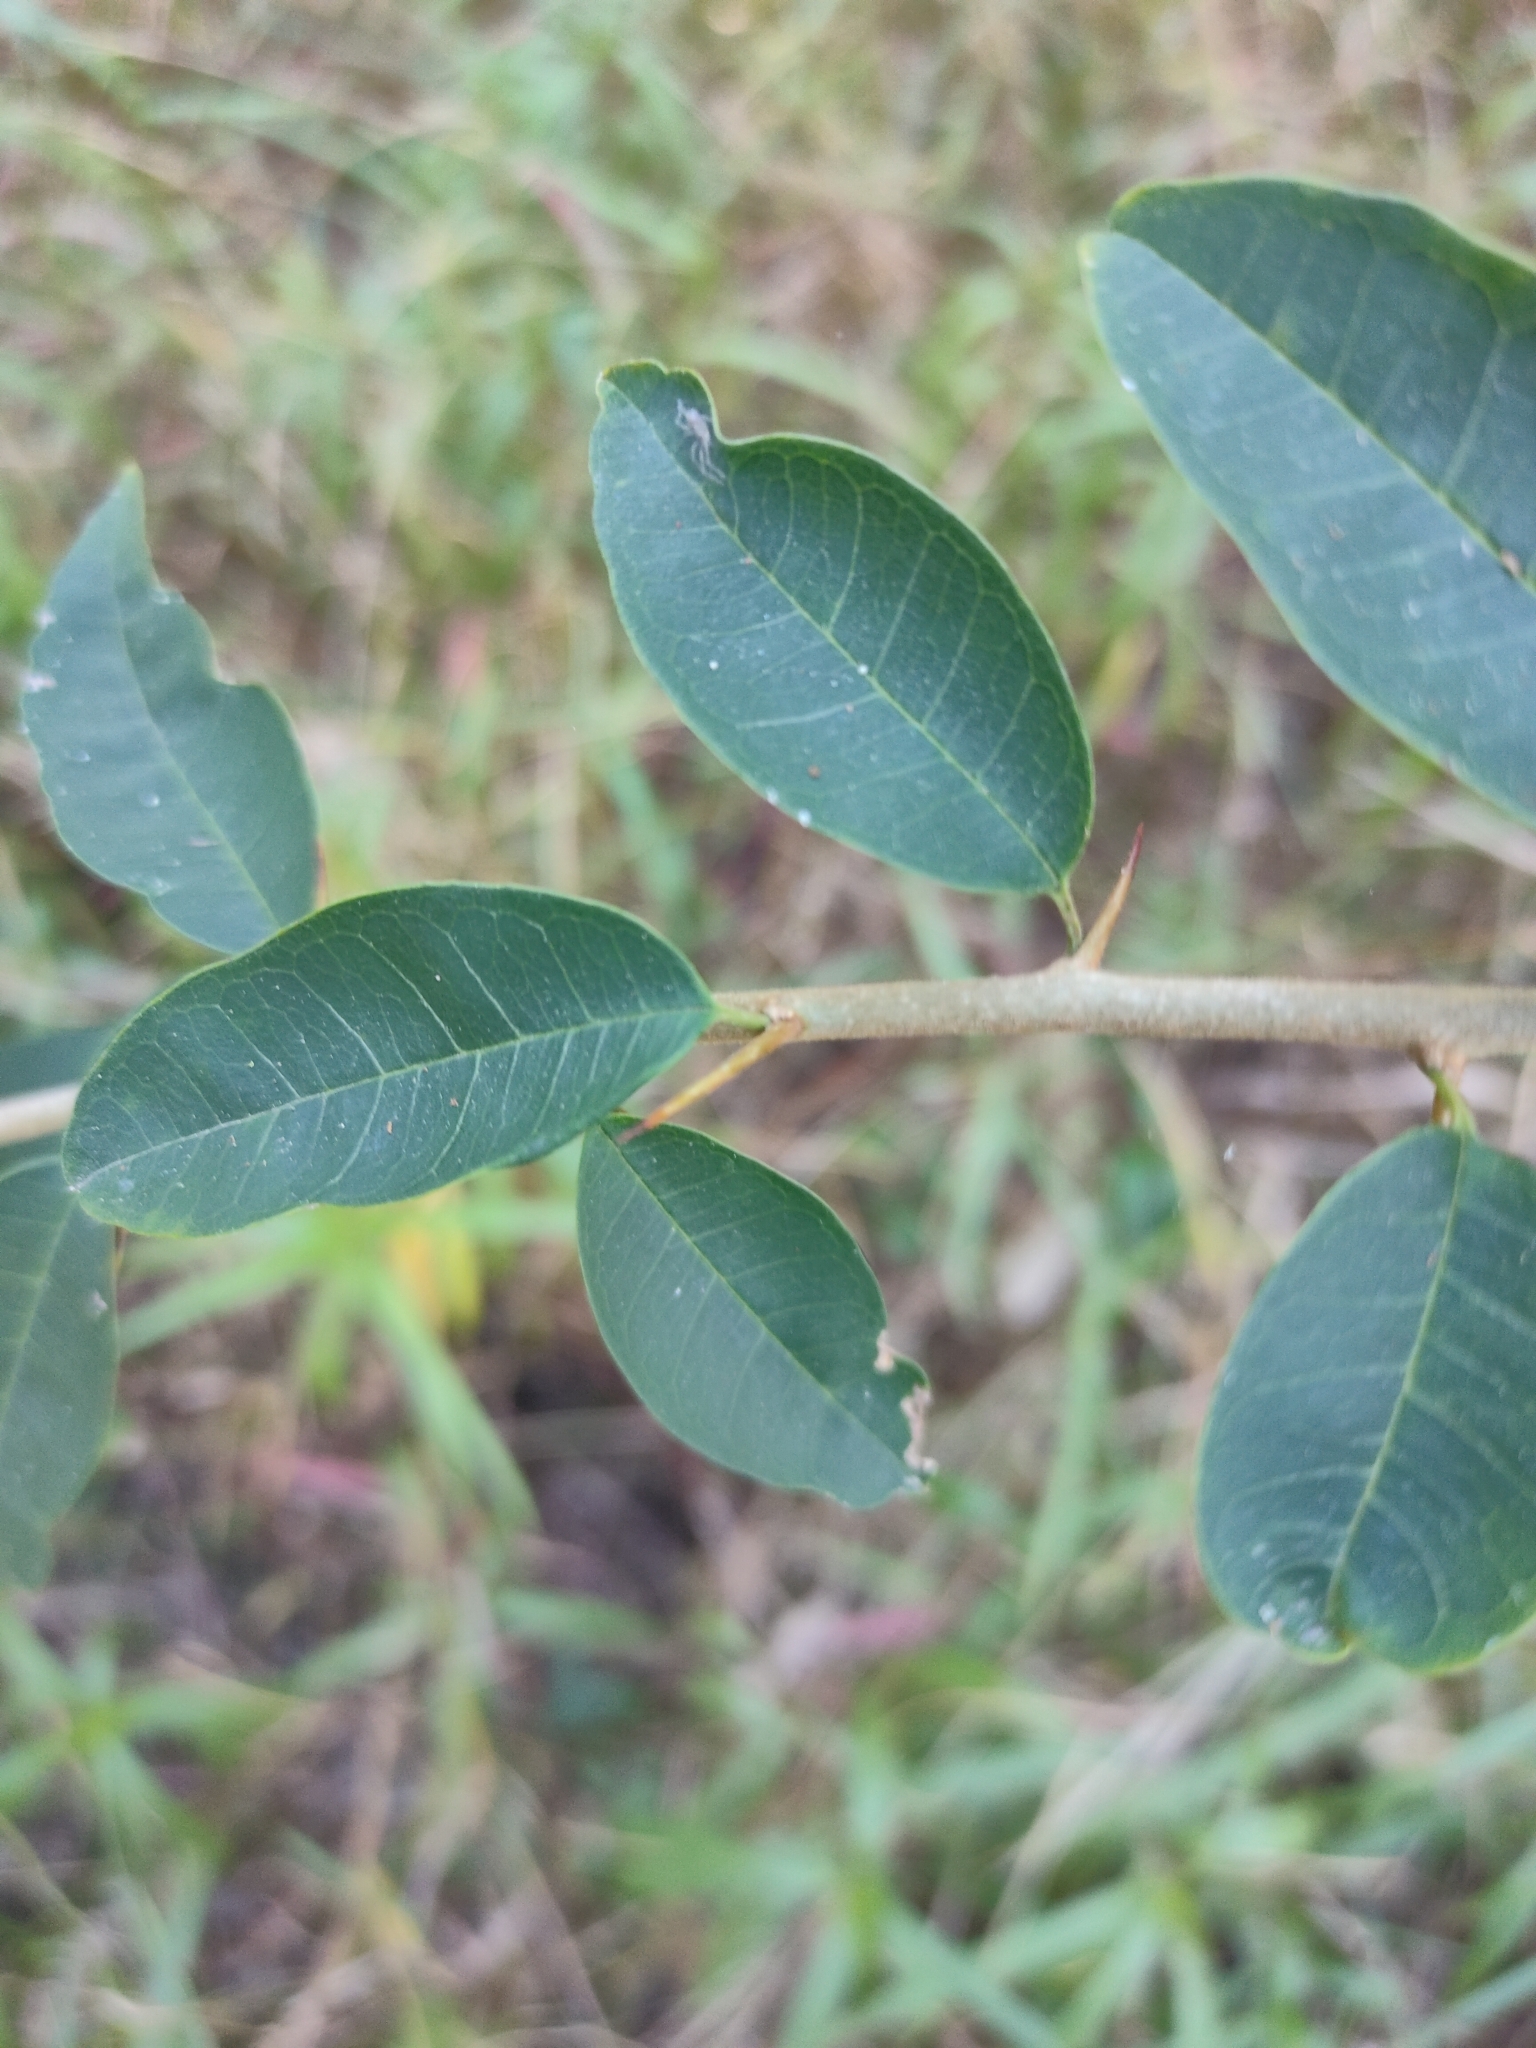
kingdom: Plantae
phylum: Tracheophyta
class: Magnoliopsida
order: Rosales
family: Moraceae
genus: Maclura
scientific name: Maclura cochinchinensis
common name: Cockspurthorn
